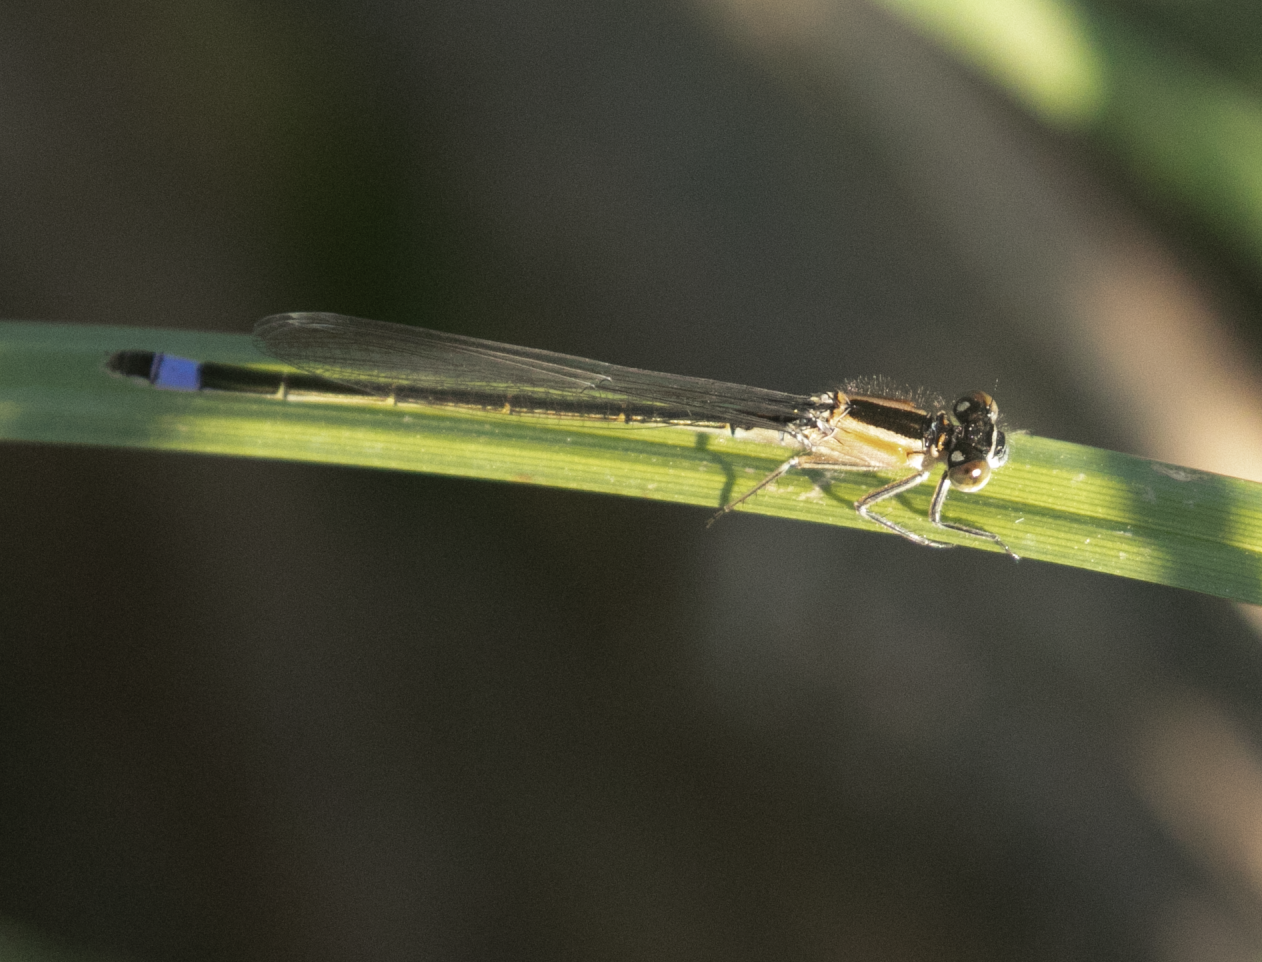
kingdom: Animalia
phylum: Arthropoda
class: Insecta
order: Odonata
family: Coenagrionidae
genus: Ischnura
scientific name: Ischnura elegans
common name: Blue-tailed damselfly
